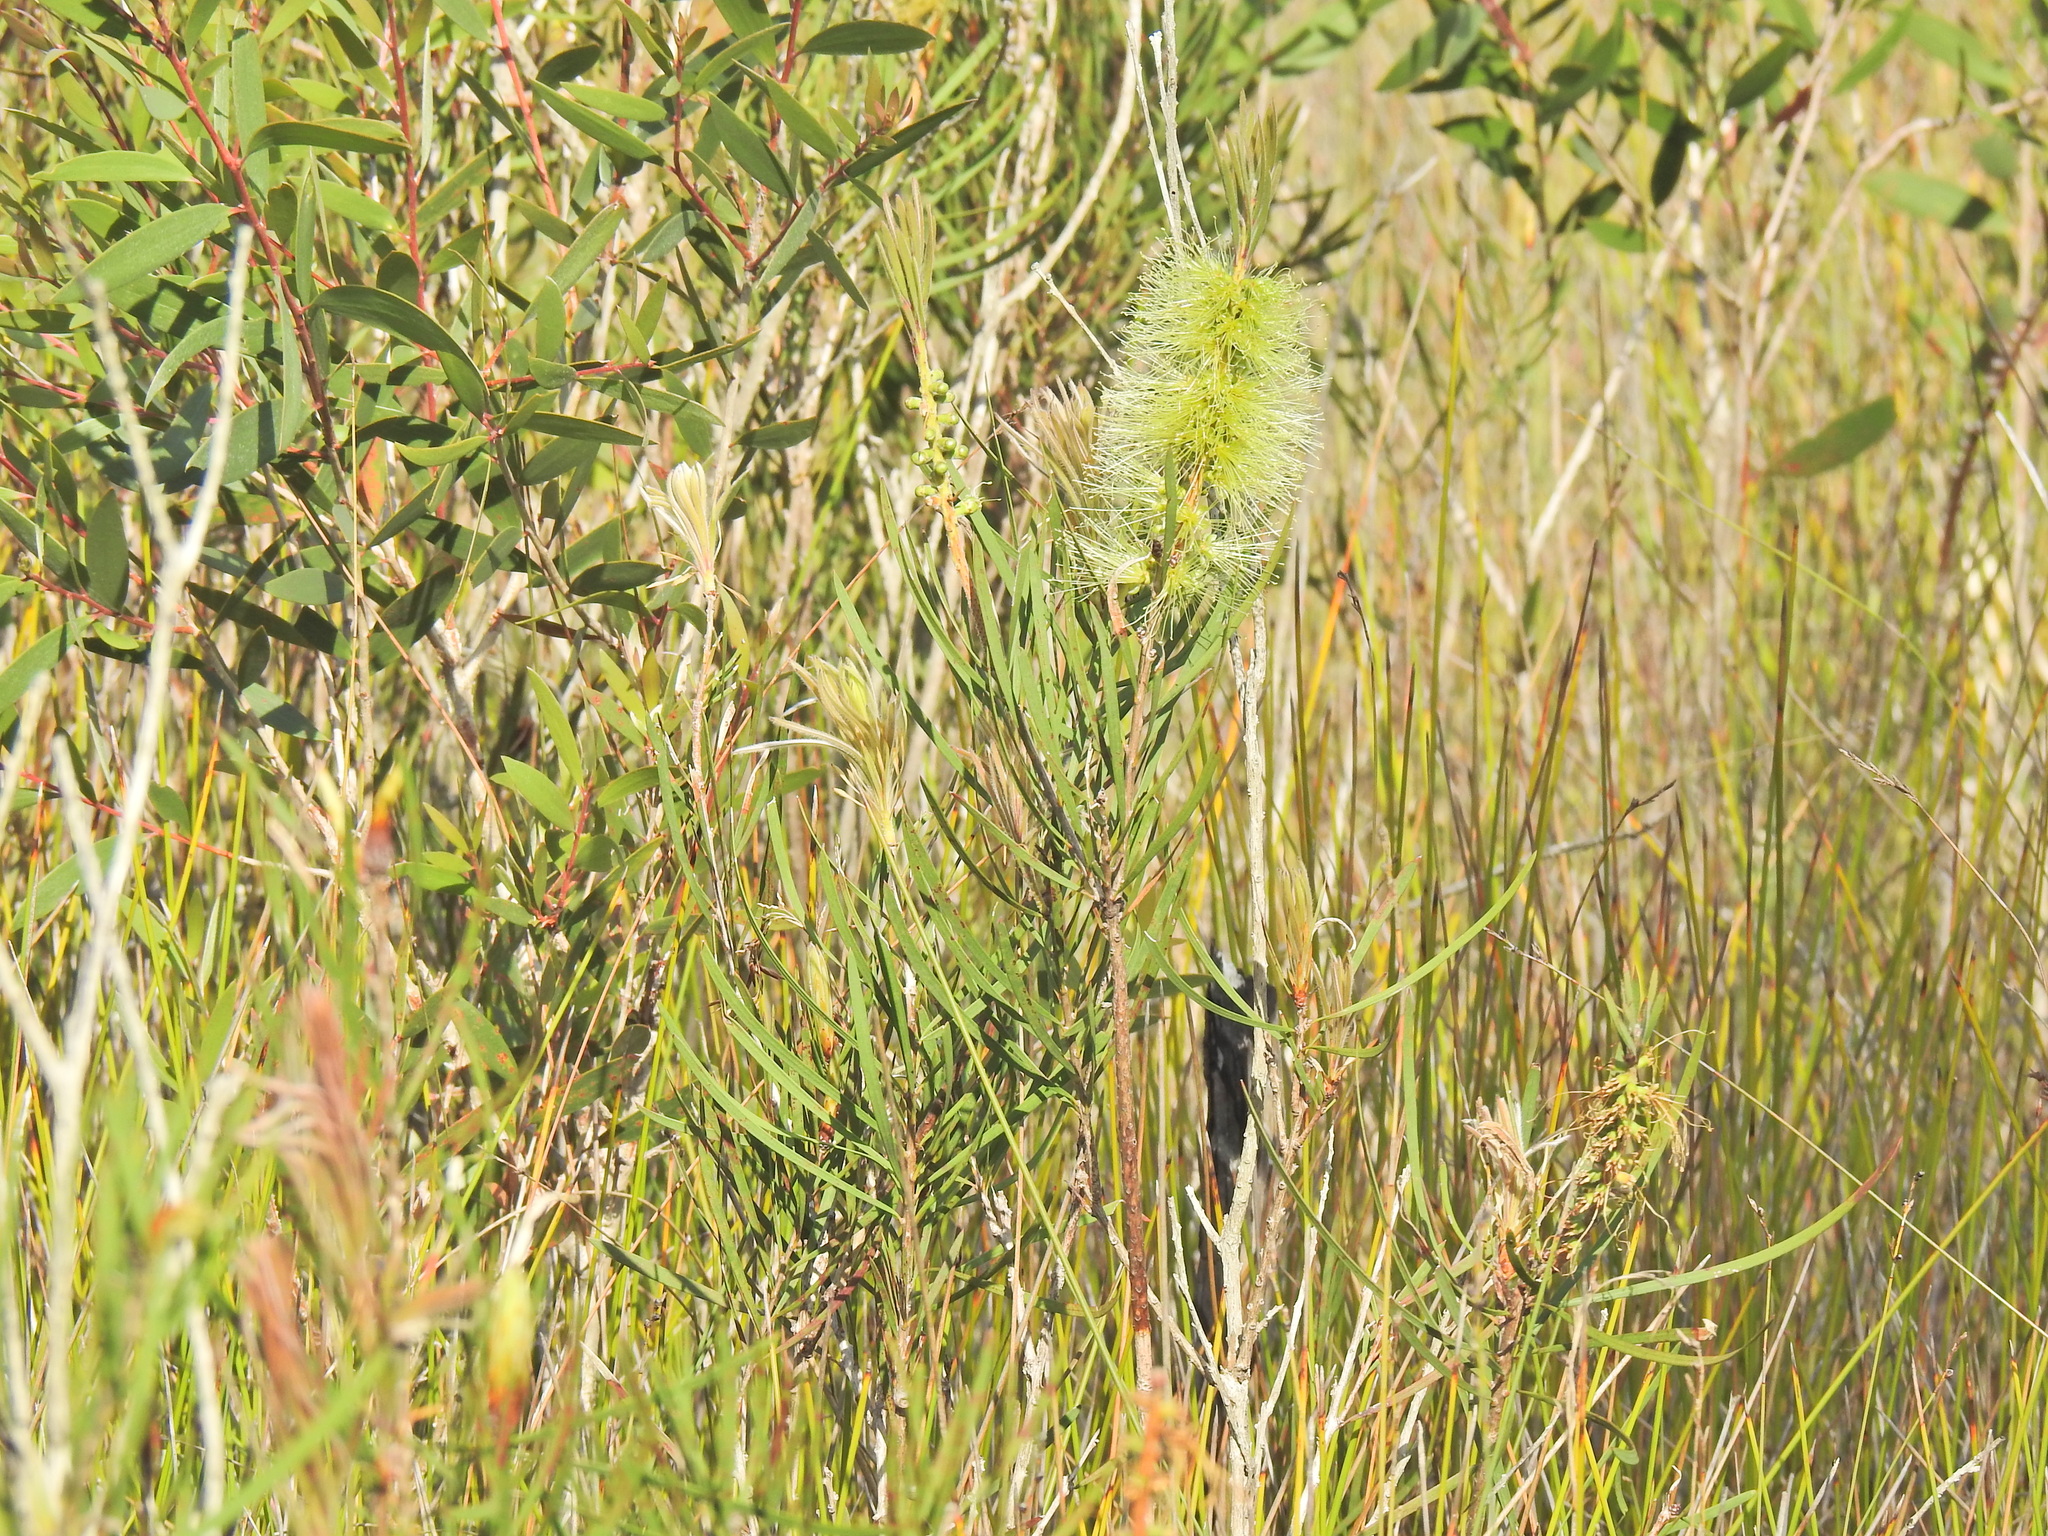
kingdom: Plantae
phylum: Tracheophyta
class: Magnoliopsida
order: Myrtales
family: Myrtaceae
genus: Callistemon
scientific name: Callistemon pachyphyllus
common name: Wallum bottlebrush
